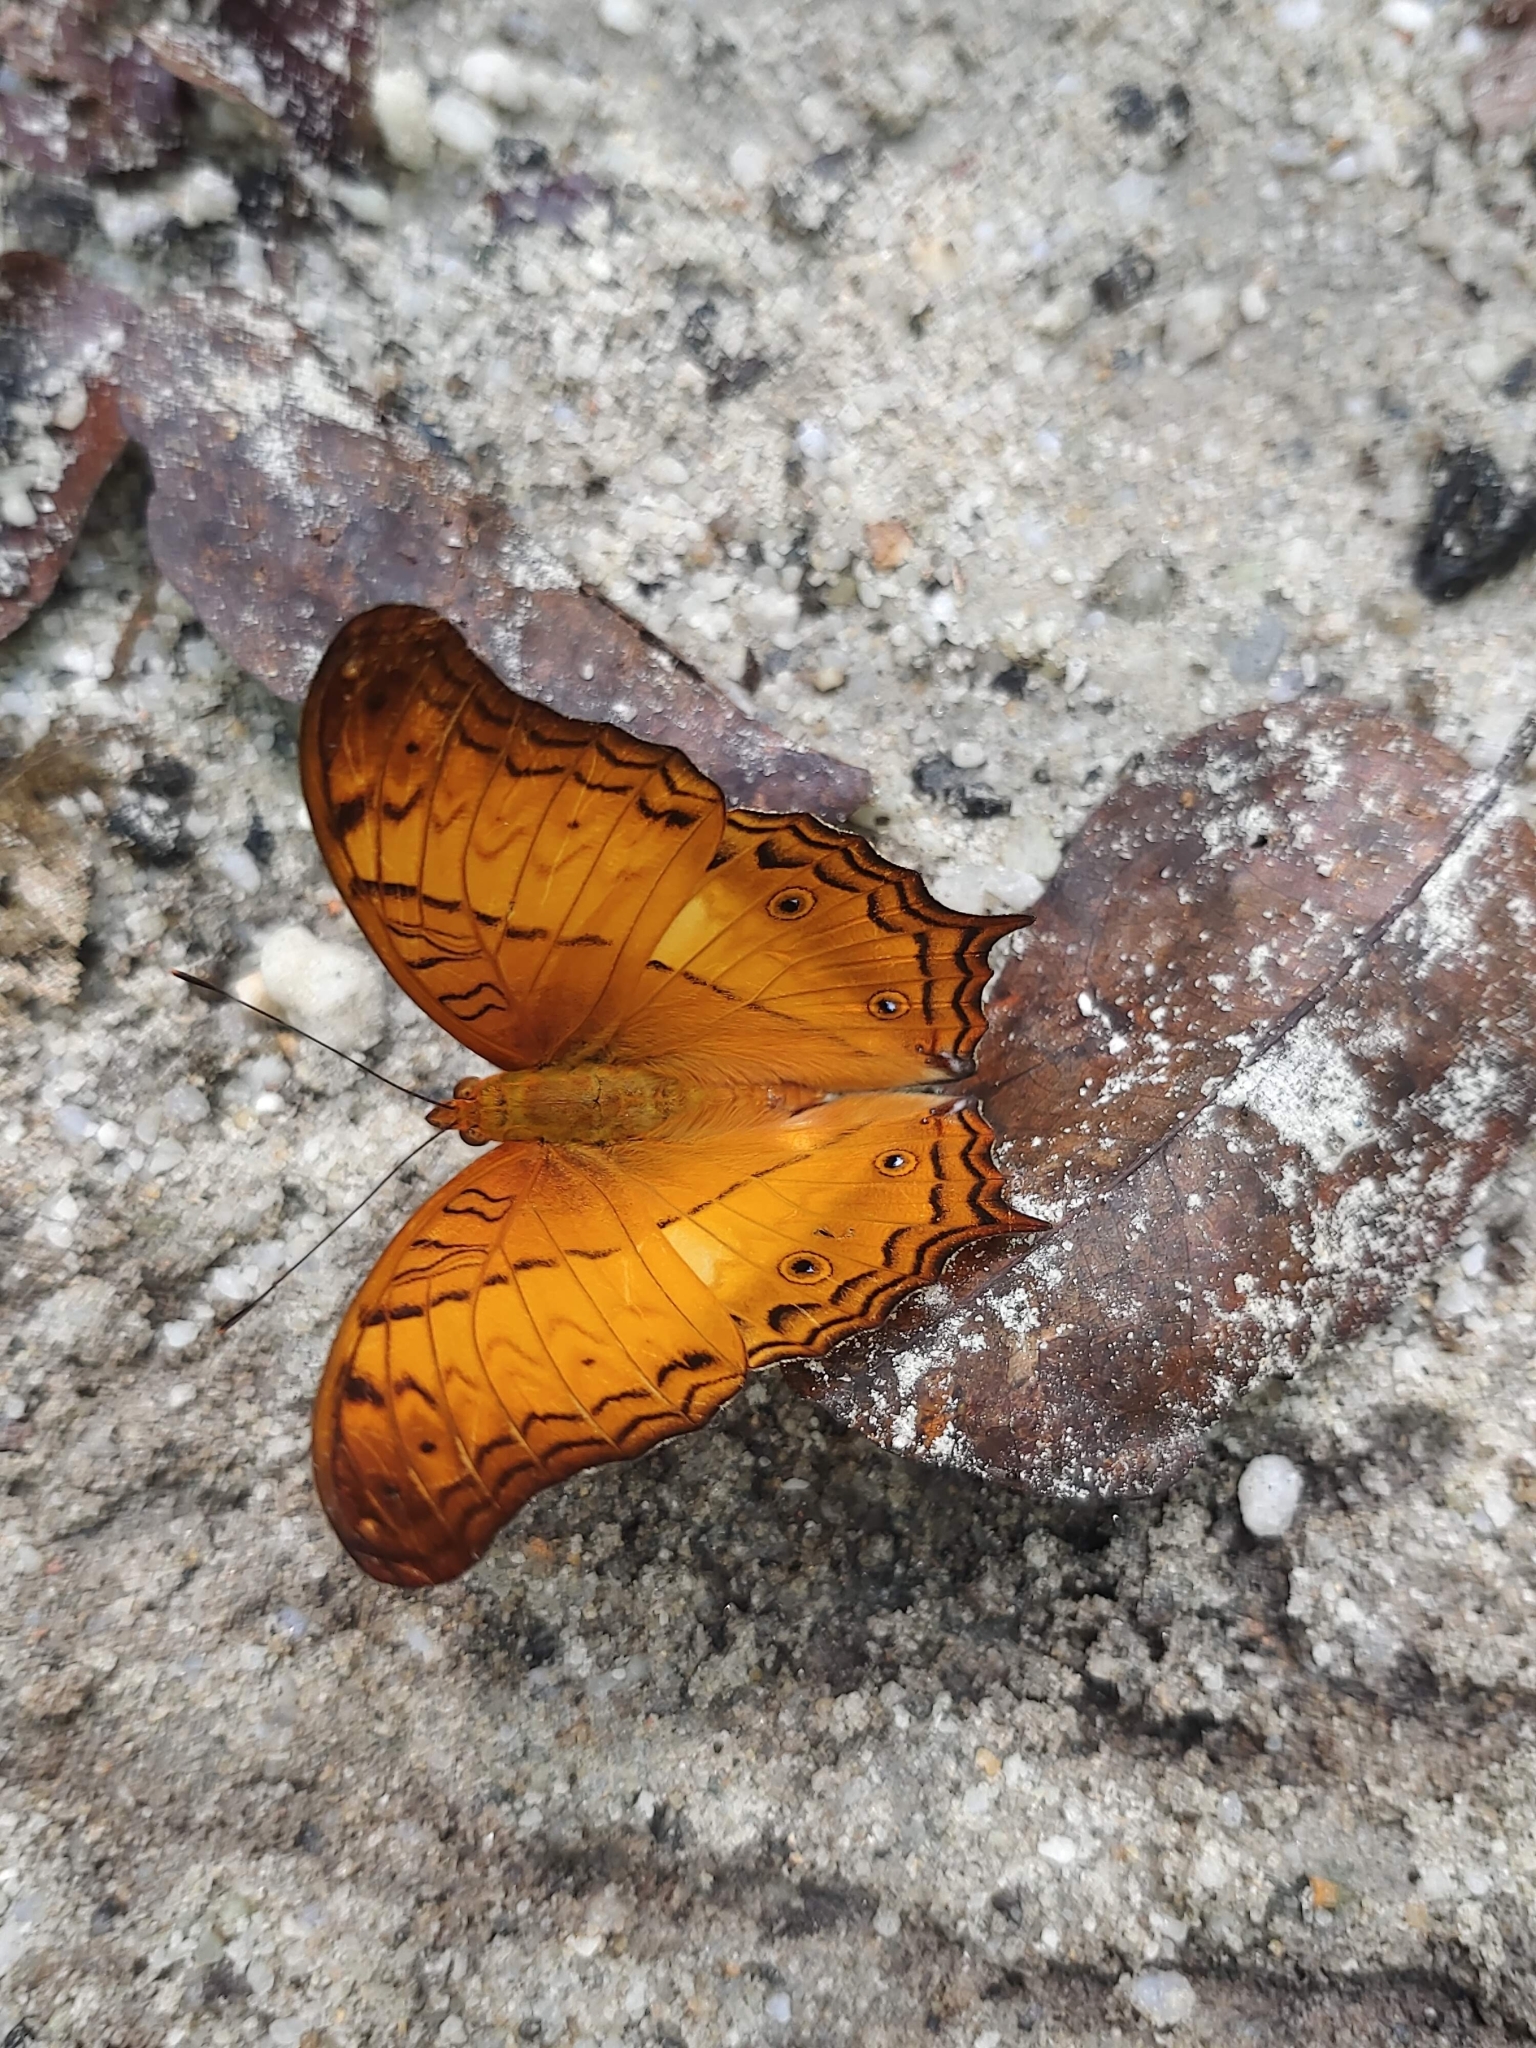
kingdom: Animalia
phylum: Arthropoda
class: Insecta
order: Lepidoptera
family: Nymphalidae
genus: Vindula
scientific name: Vindula deione
